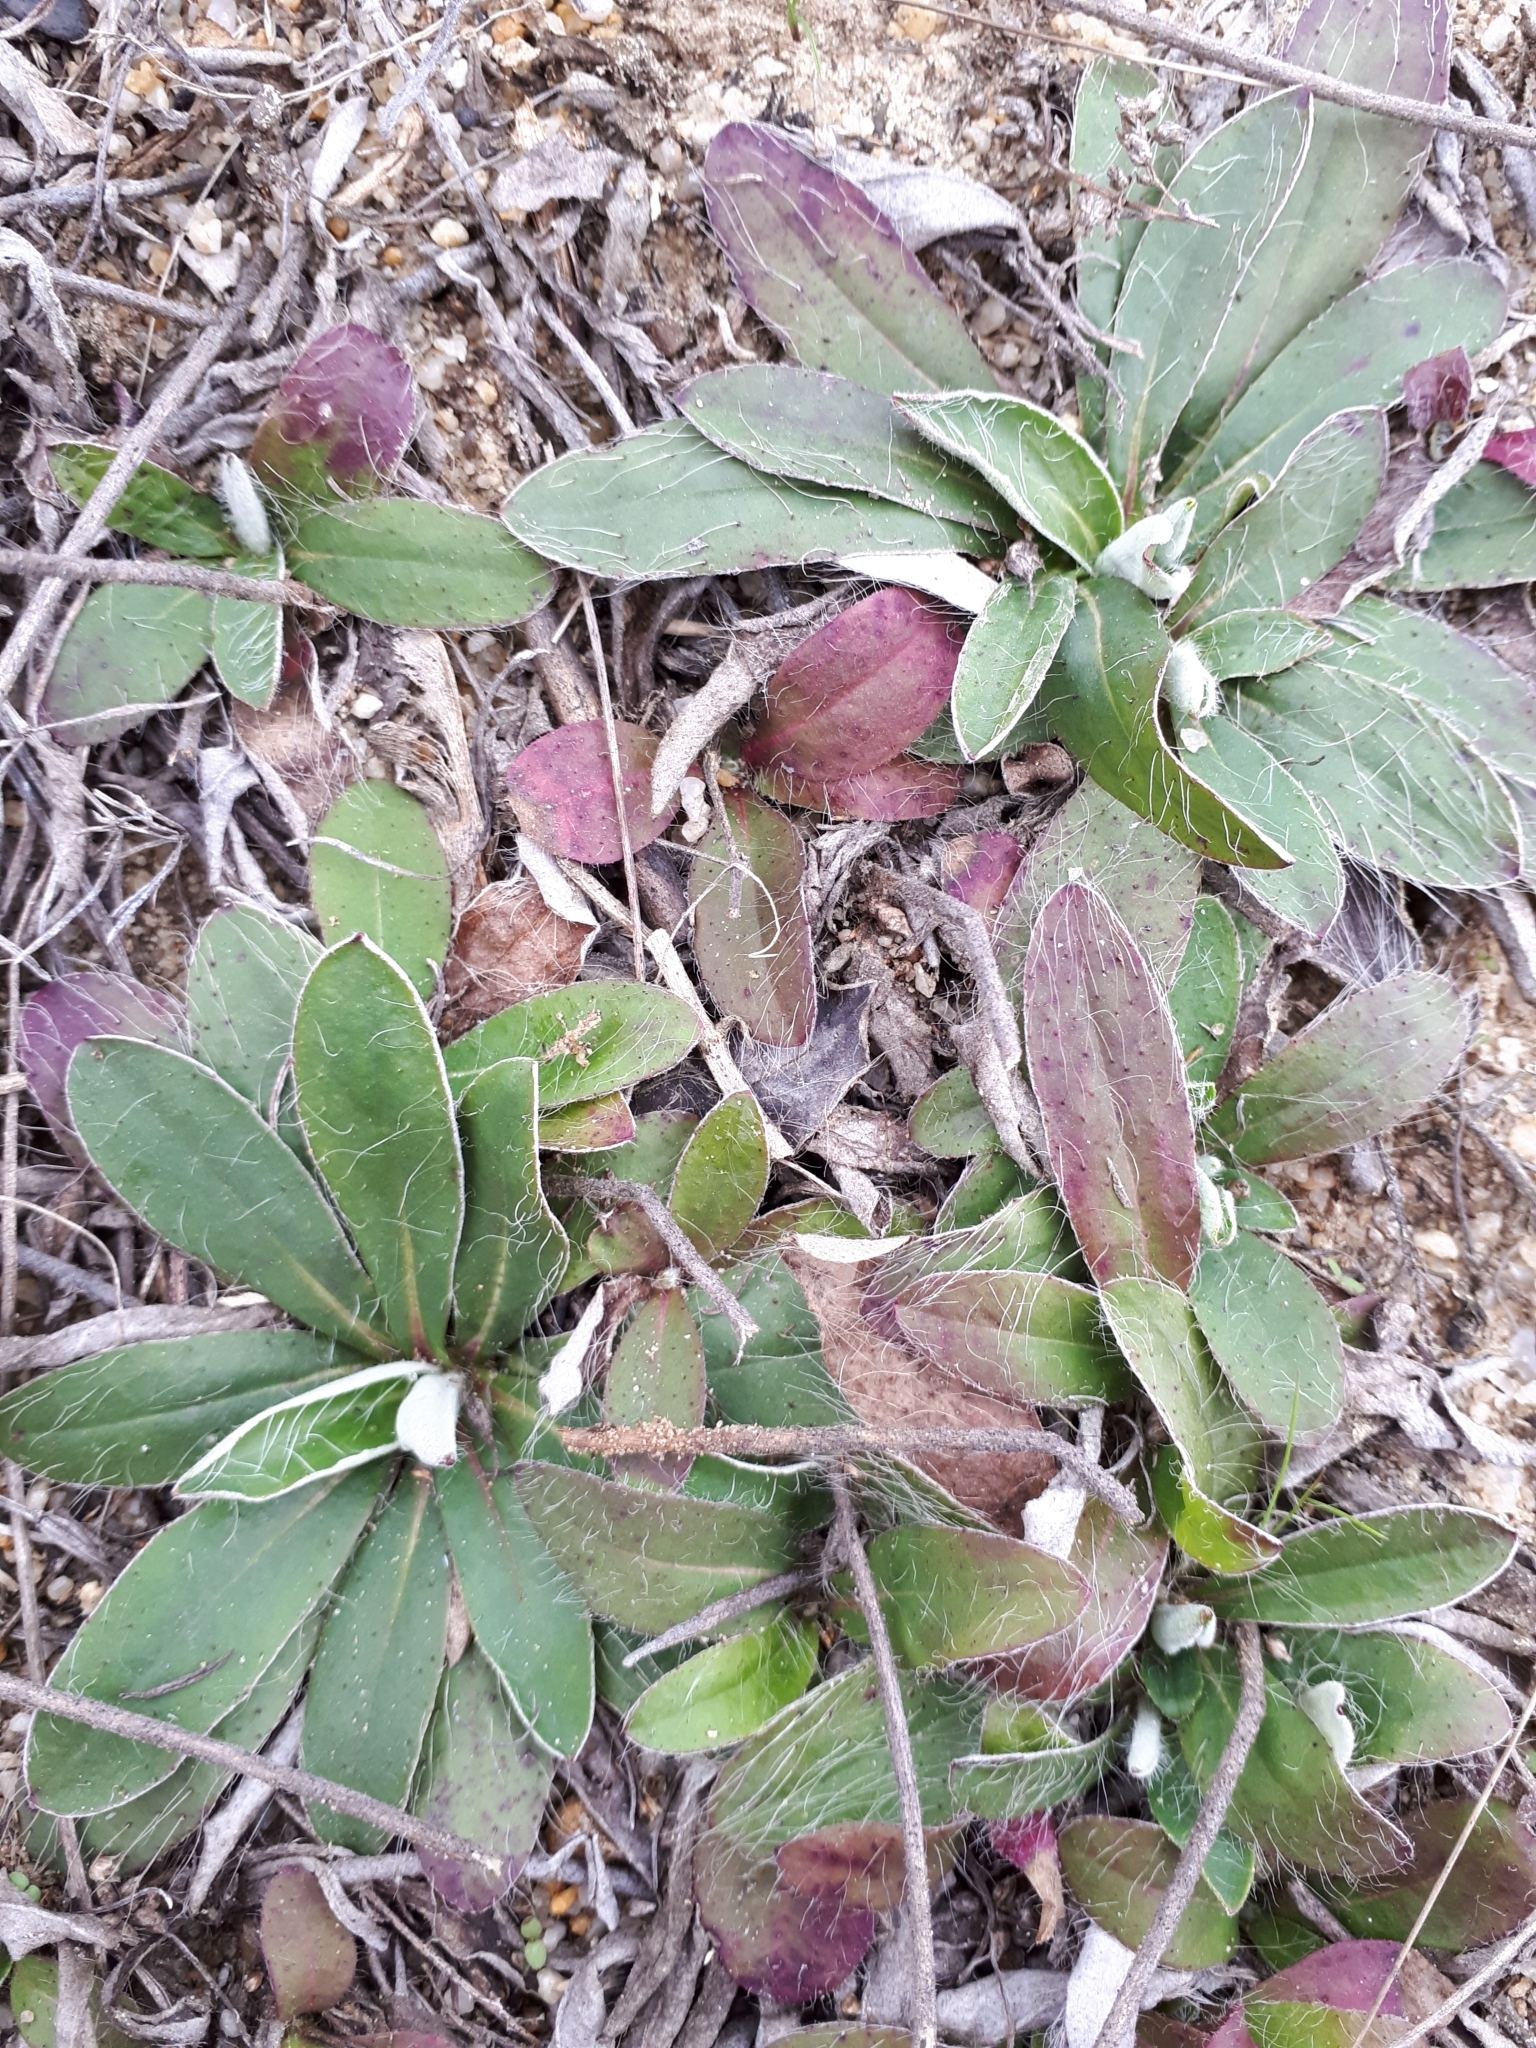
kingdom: Plantae
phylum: Tracheophyta
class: Magnoliopsida
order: Asterales
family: Asteraceae
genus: Pilosella
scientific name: Pilosella officinarum
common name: Mouse-ear hawkweed
